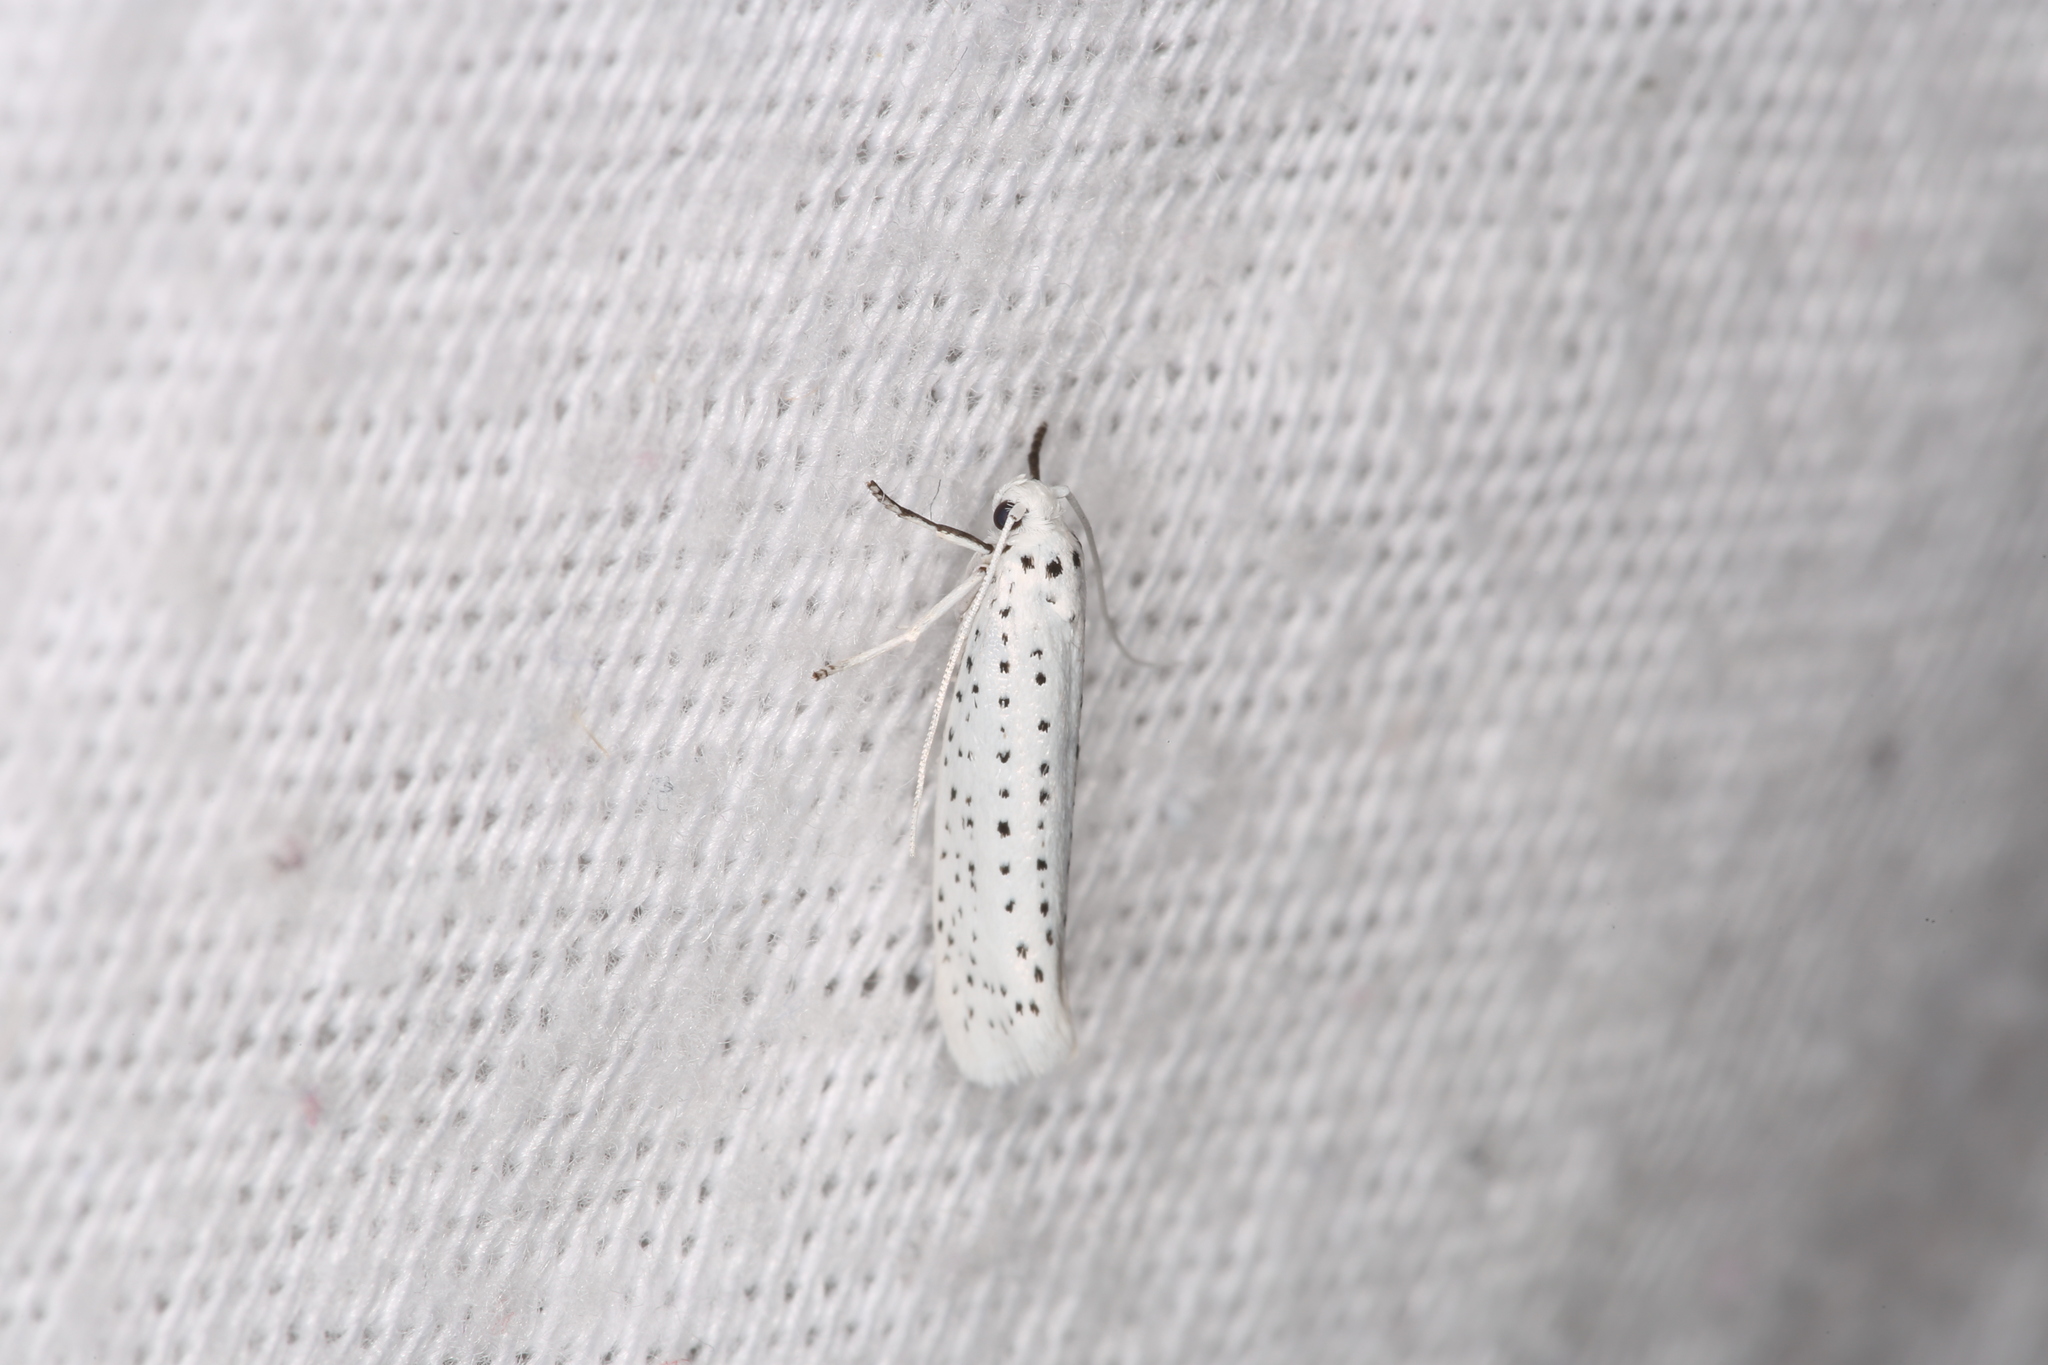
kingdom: Animalia
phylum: Arthropoda
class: Insecta
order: Lepidoptera
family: Yponomeutidae
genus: Yponomeuta
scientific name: Yponomeuta evonymella
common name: Bird-cherry ermine
